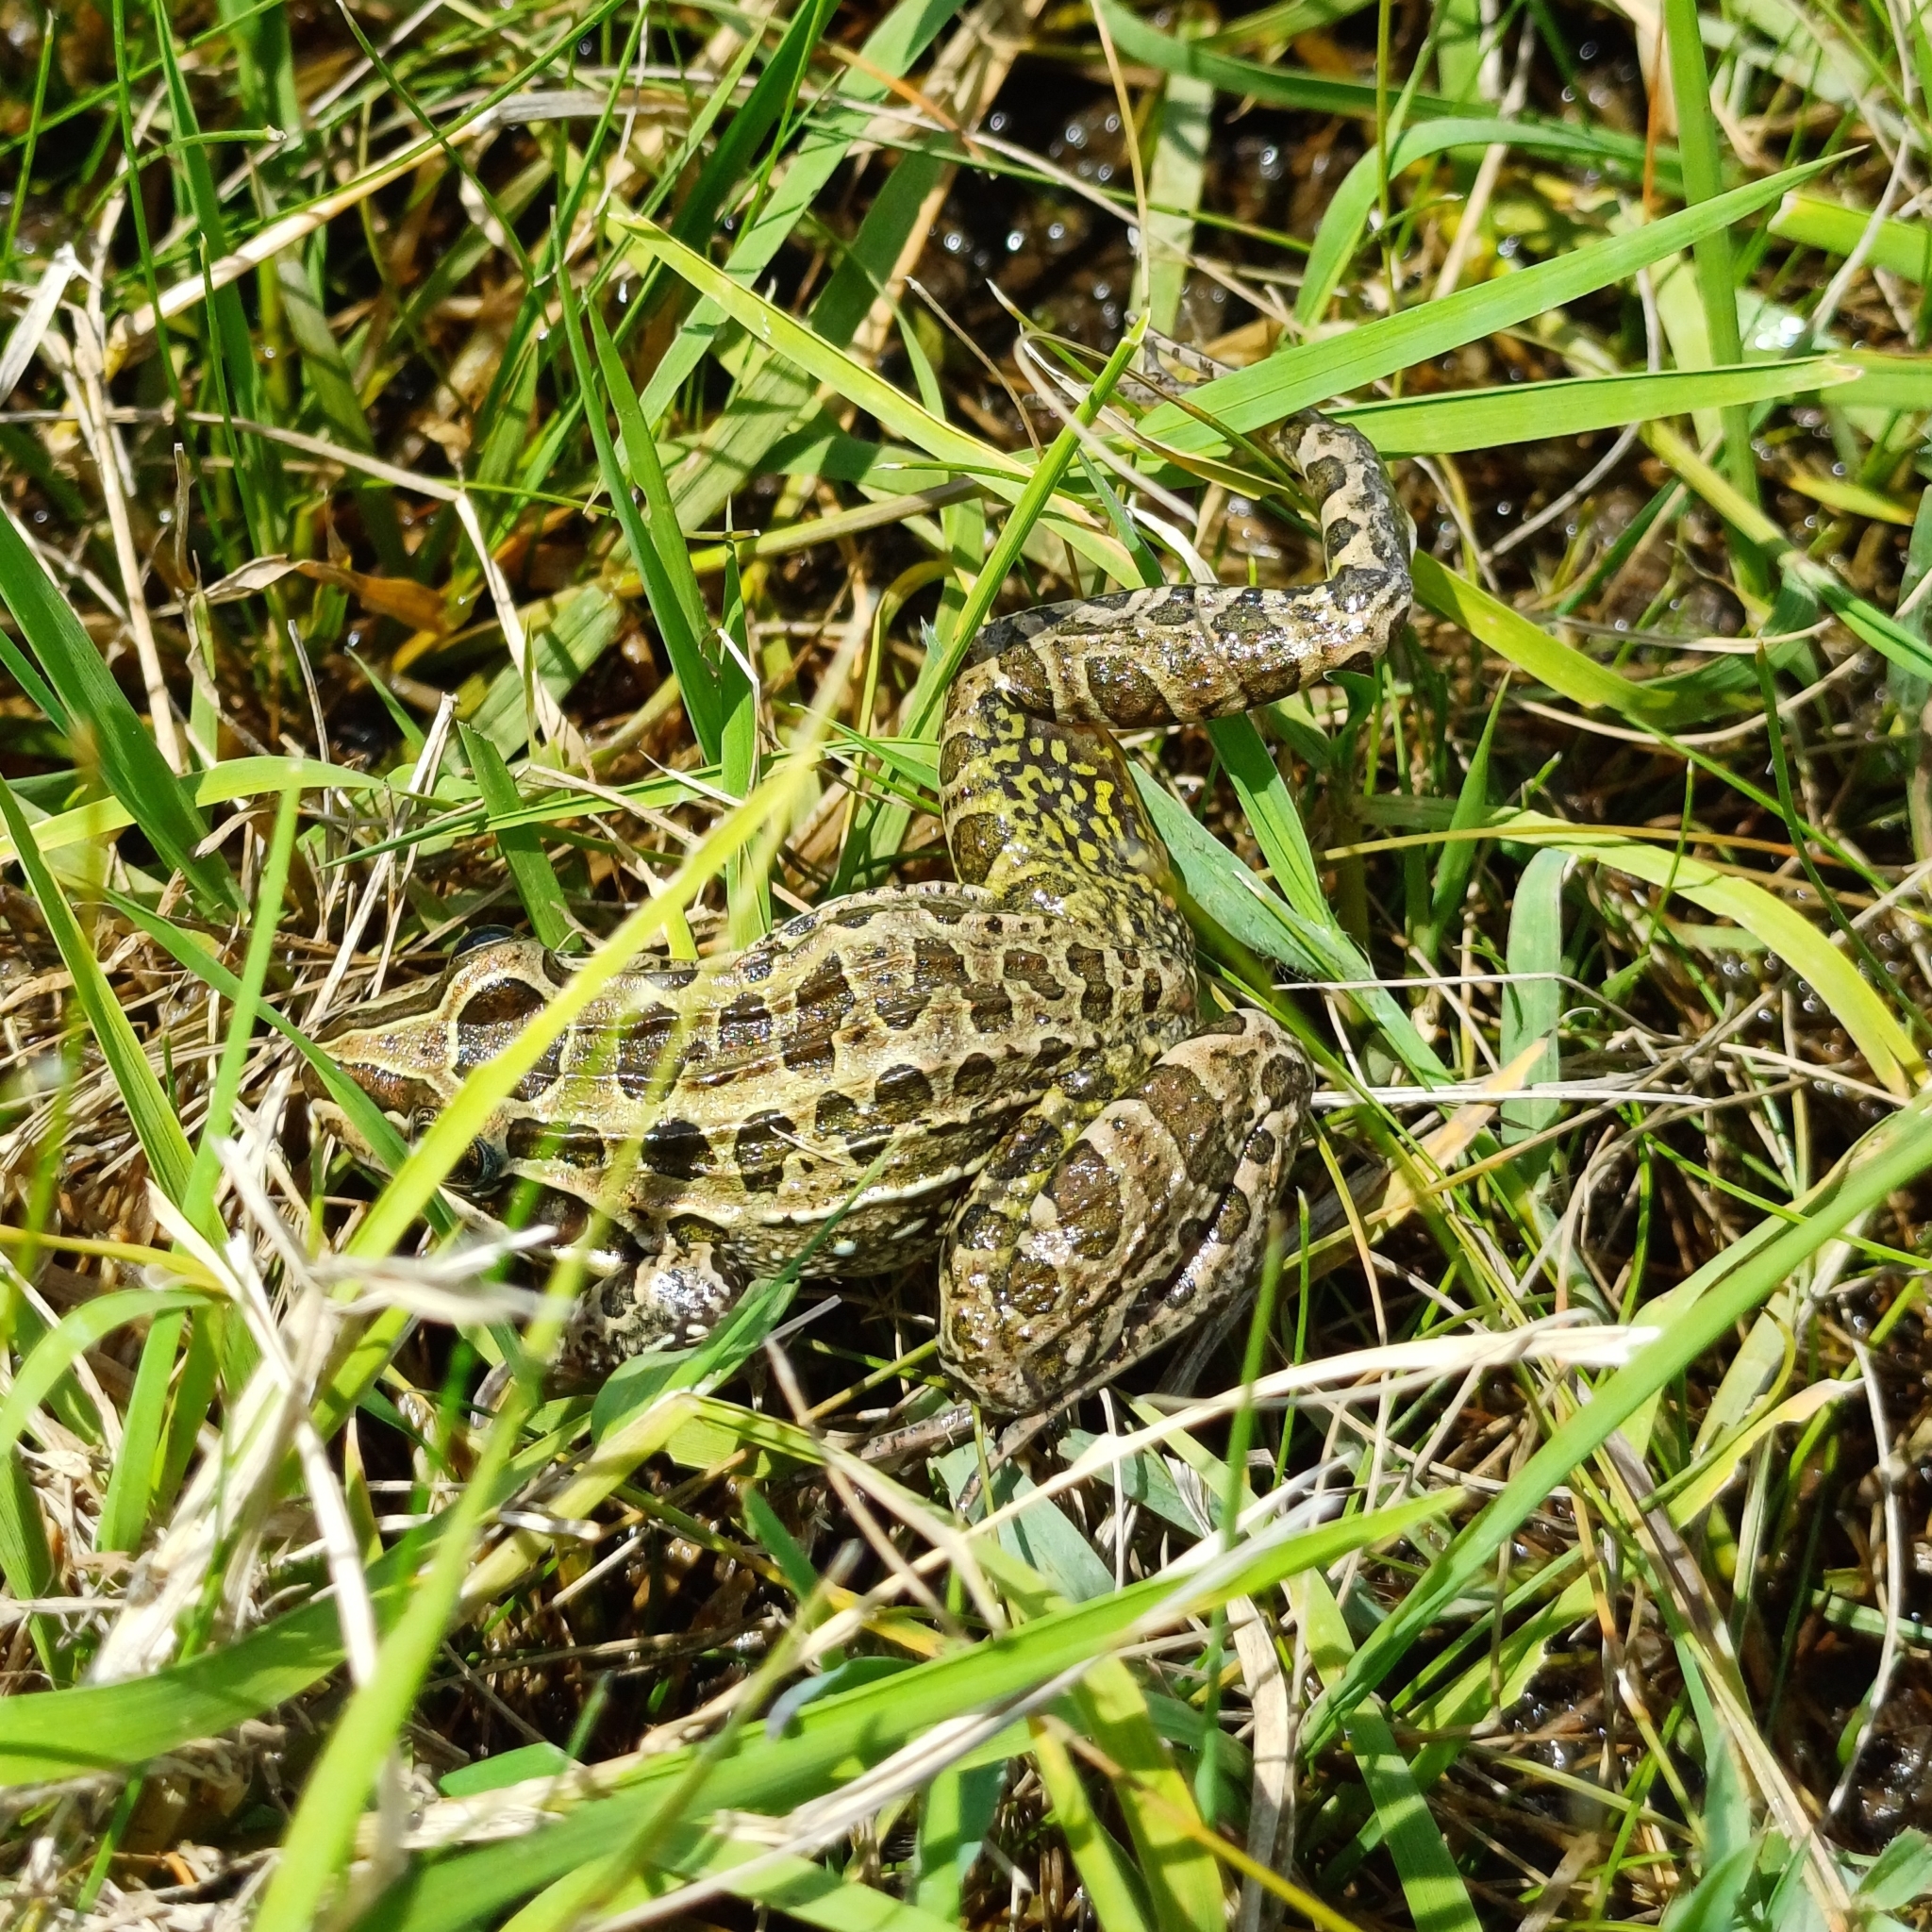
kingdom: Animalia
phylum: Chordata
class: Amphibia
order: Anura
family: Leptodactylidae
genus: Leptodactylus
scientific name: Leptodactylus luctator
